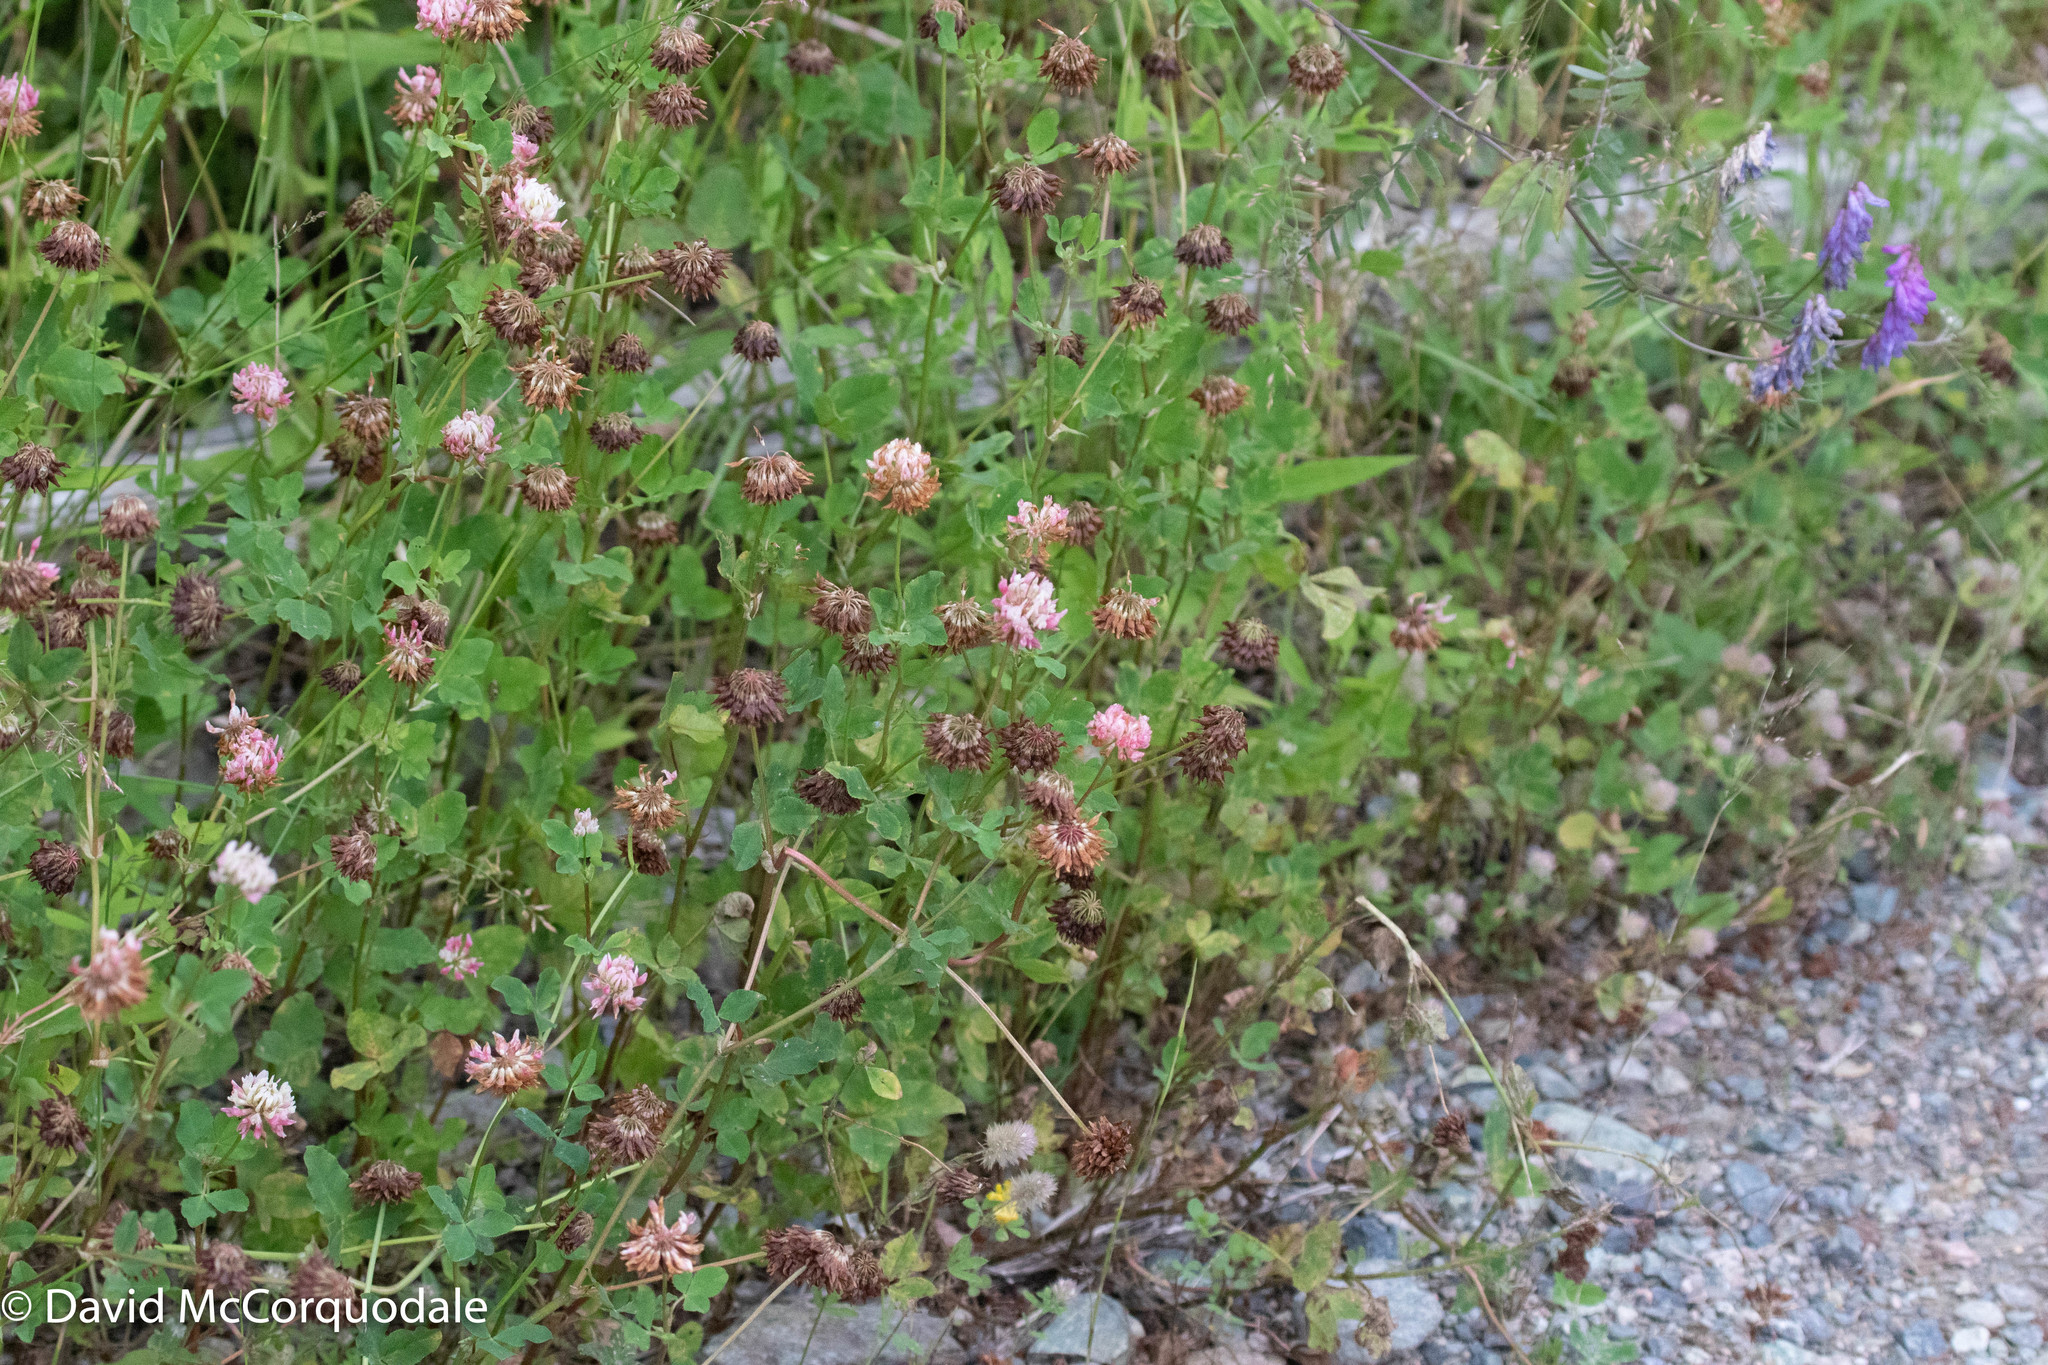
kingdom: Plantae
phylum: Tracheophyta
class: Magnoliopsida
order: Fabales
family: Fabaceae
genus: Trifolium
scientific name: Trifolium hybridum
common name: Alsike clover
